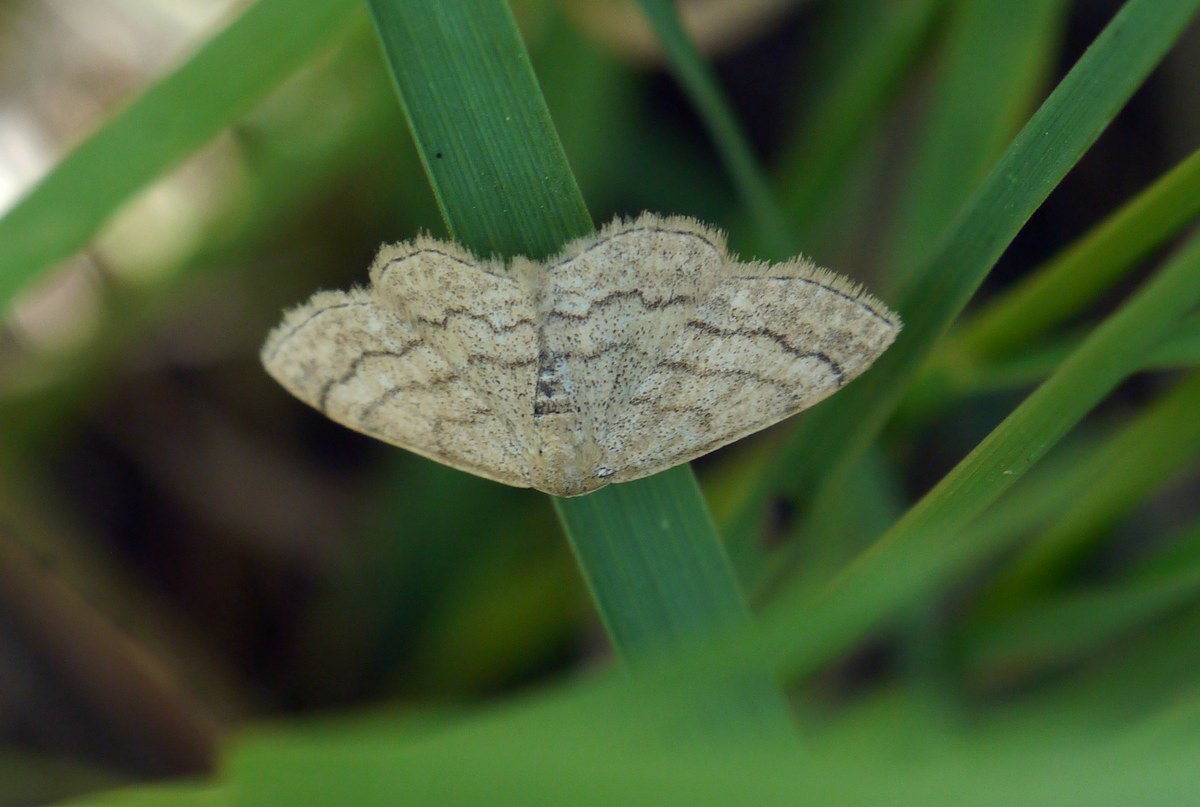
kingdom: Animalia
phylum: Arthropoda
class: Insecta
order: Lepidoptera
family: Geometridae
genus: Scopula
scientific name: Scopula rubiginata
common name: Tawny wave
